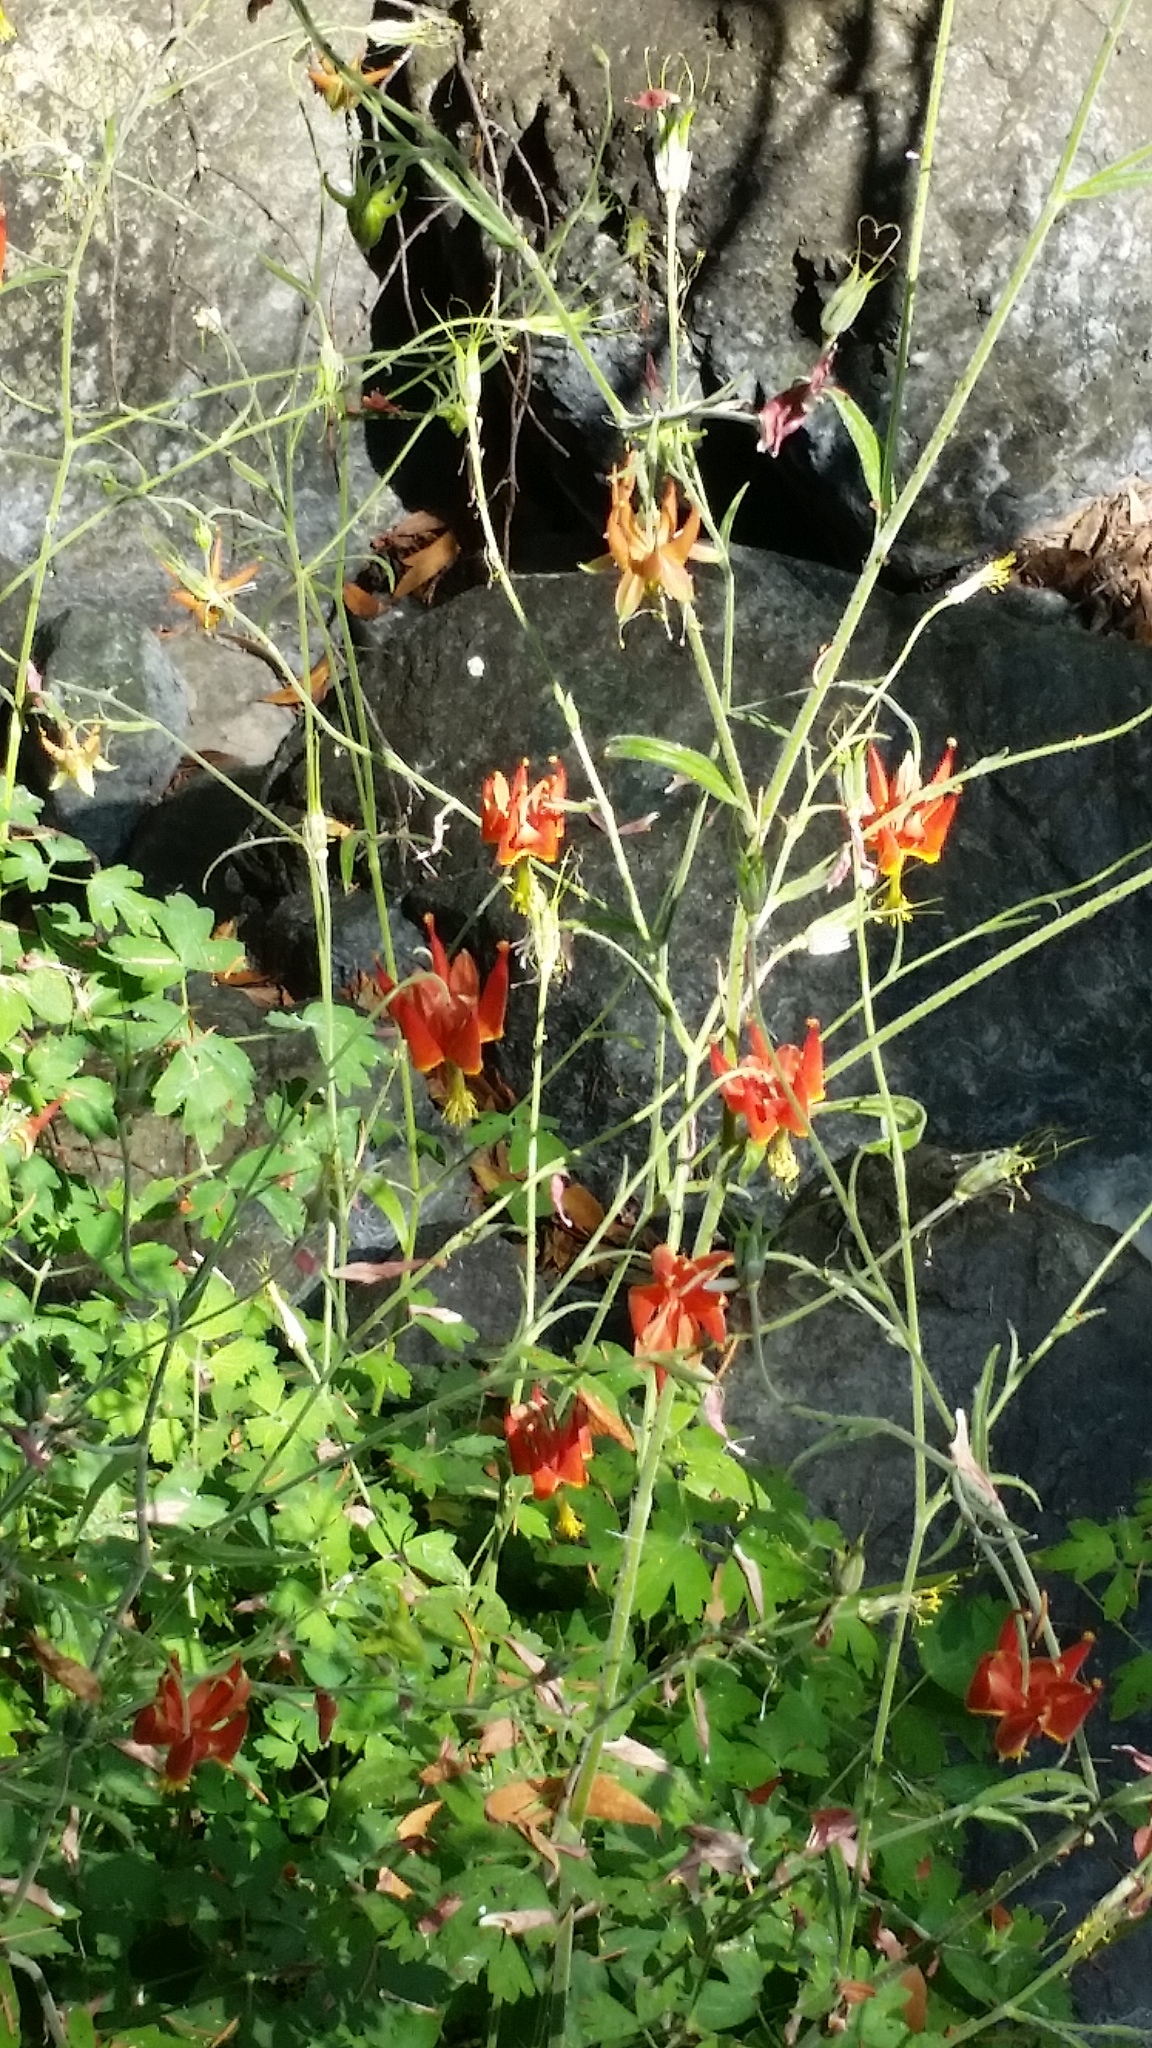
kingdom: Plantae
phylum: Tracheophyta
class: Magnoliopsida
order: Ranunculales
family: Ranunculaceae
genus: Aquilegia
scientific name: Aquilegia eximia
